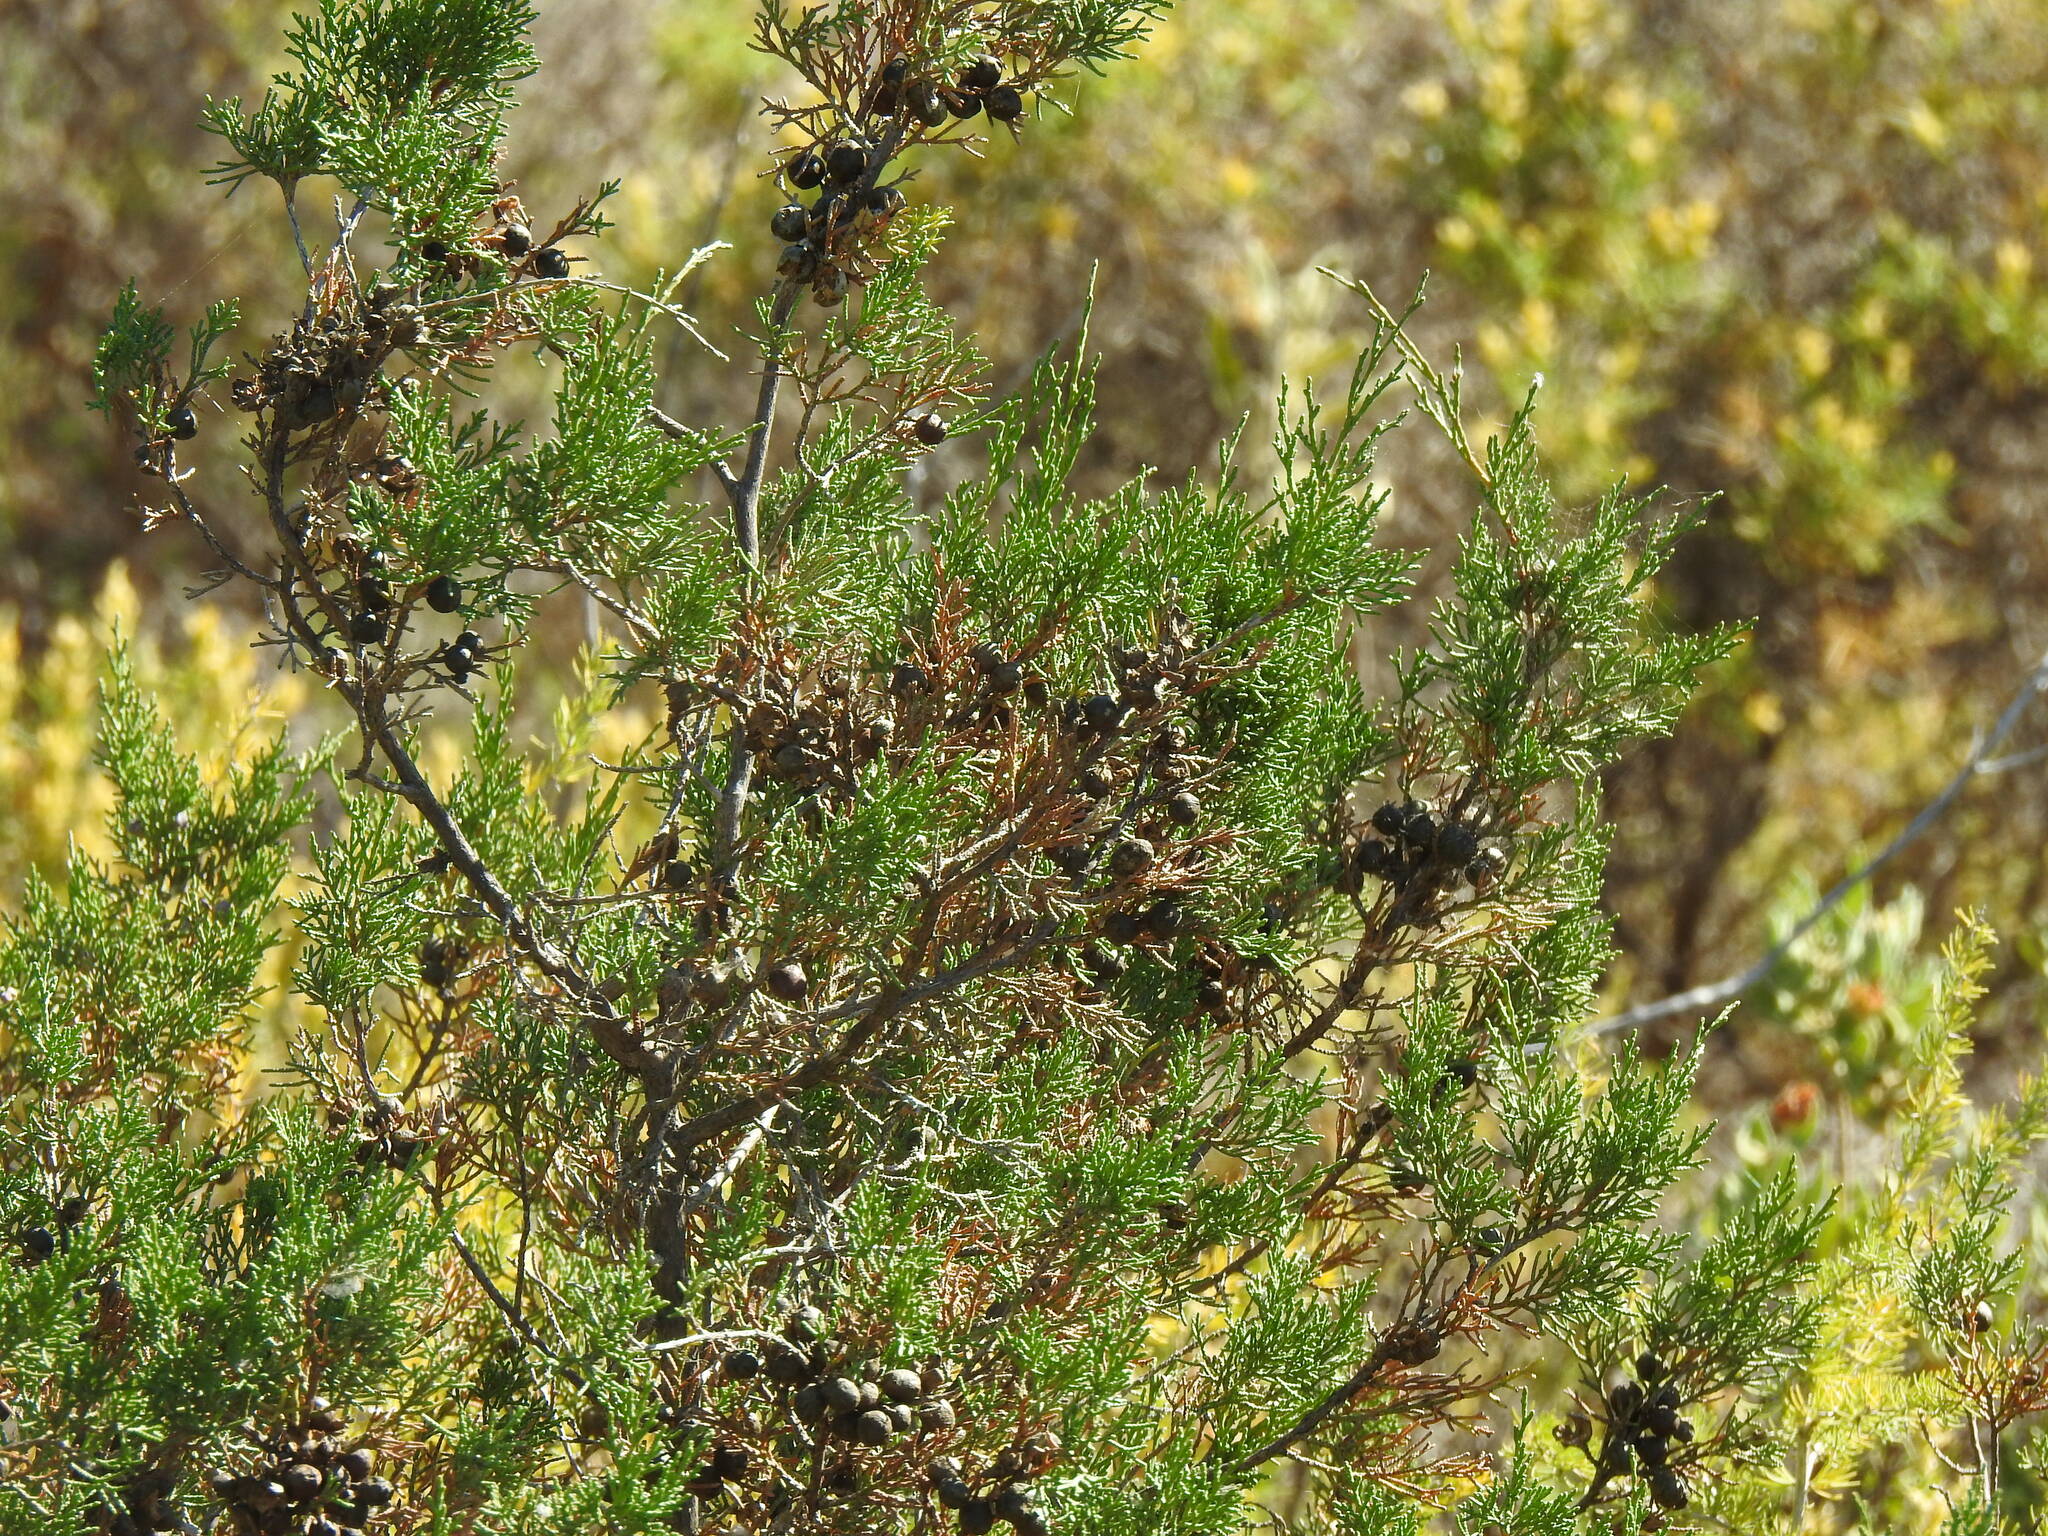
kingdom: Plantae
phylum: Tracheophyta
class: Pinopsida
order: Pinales
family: Cupressaceae
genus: Juniperus
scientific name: Juniperus phoenicea
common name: Phoenician juniper
